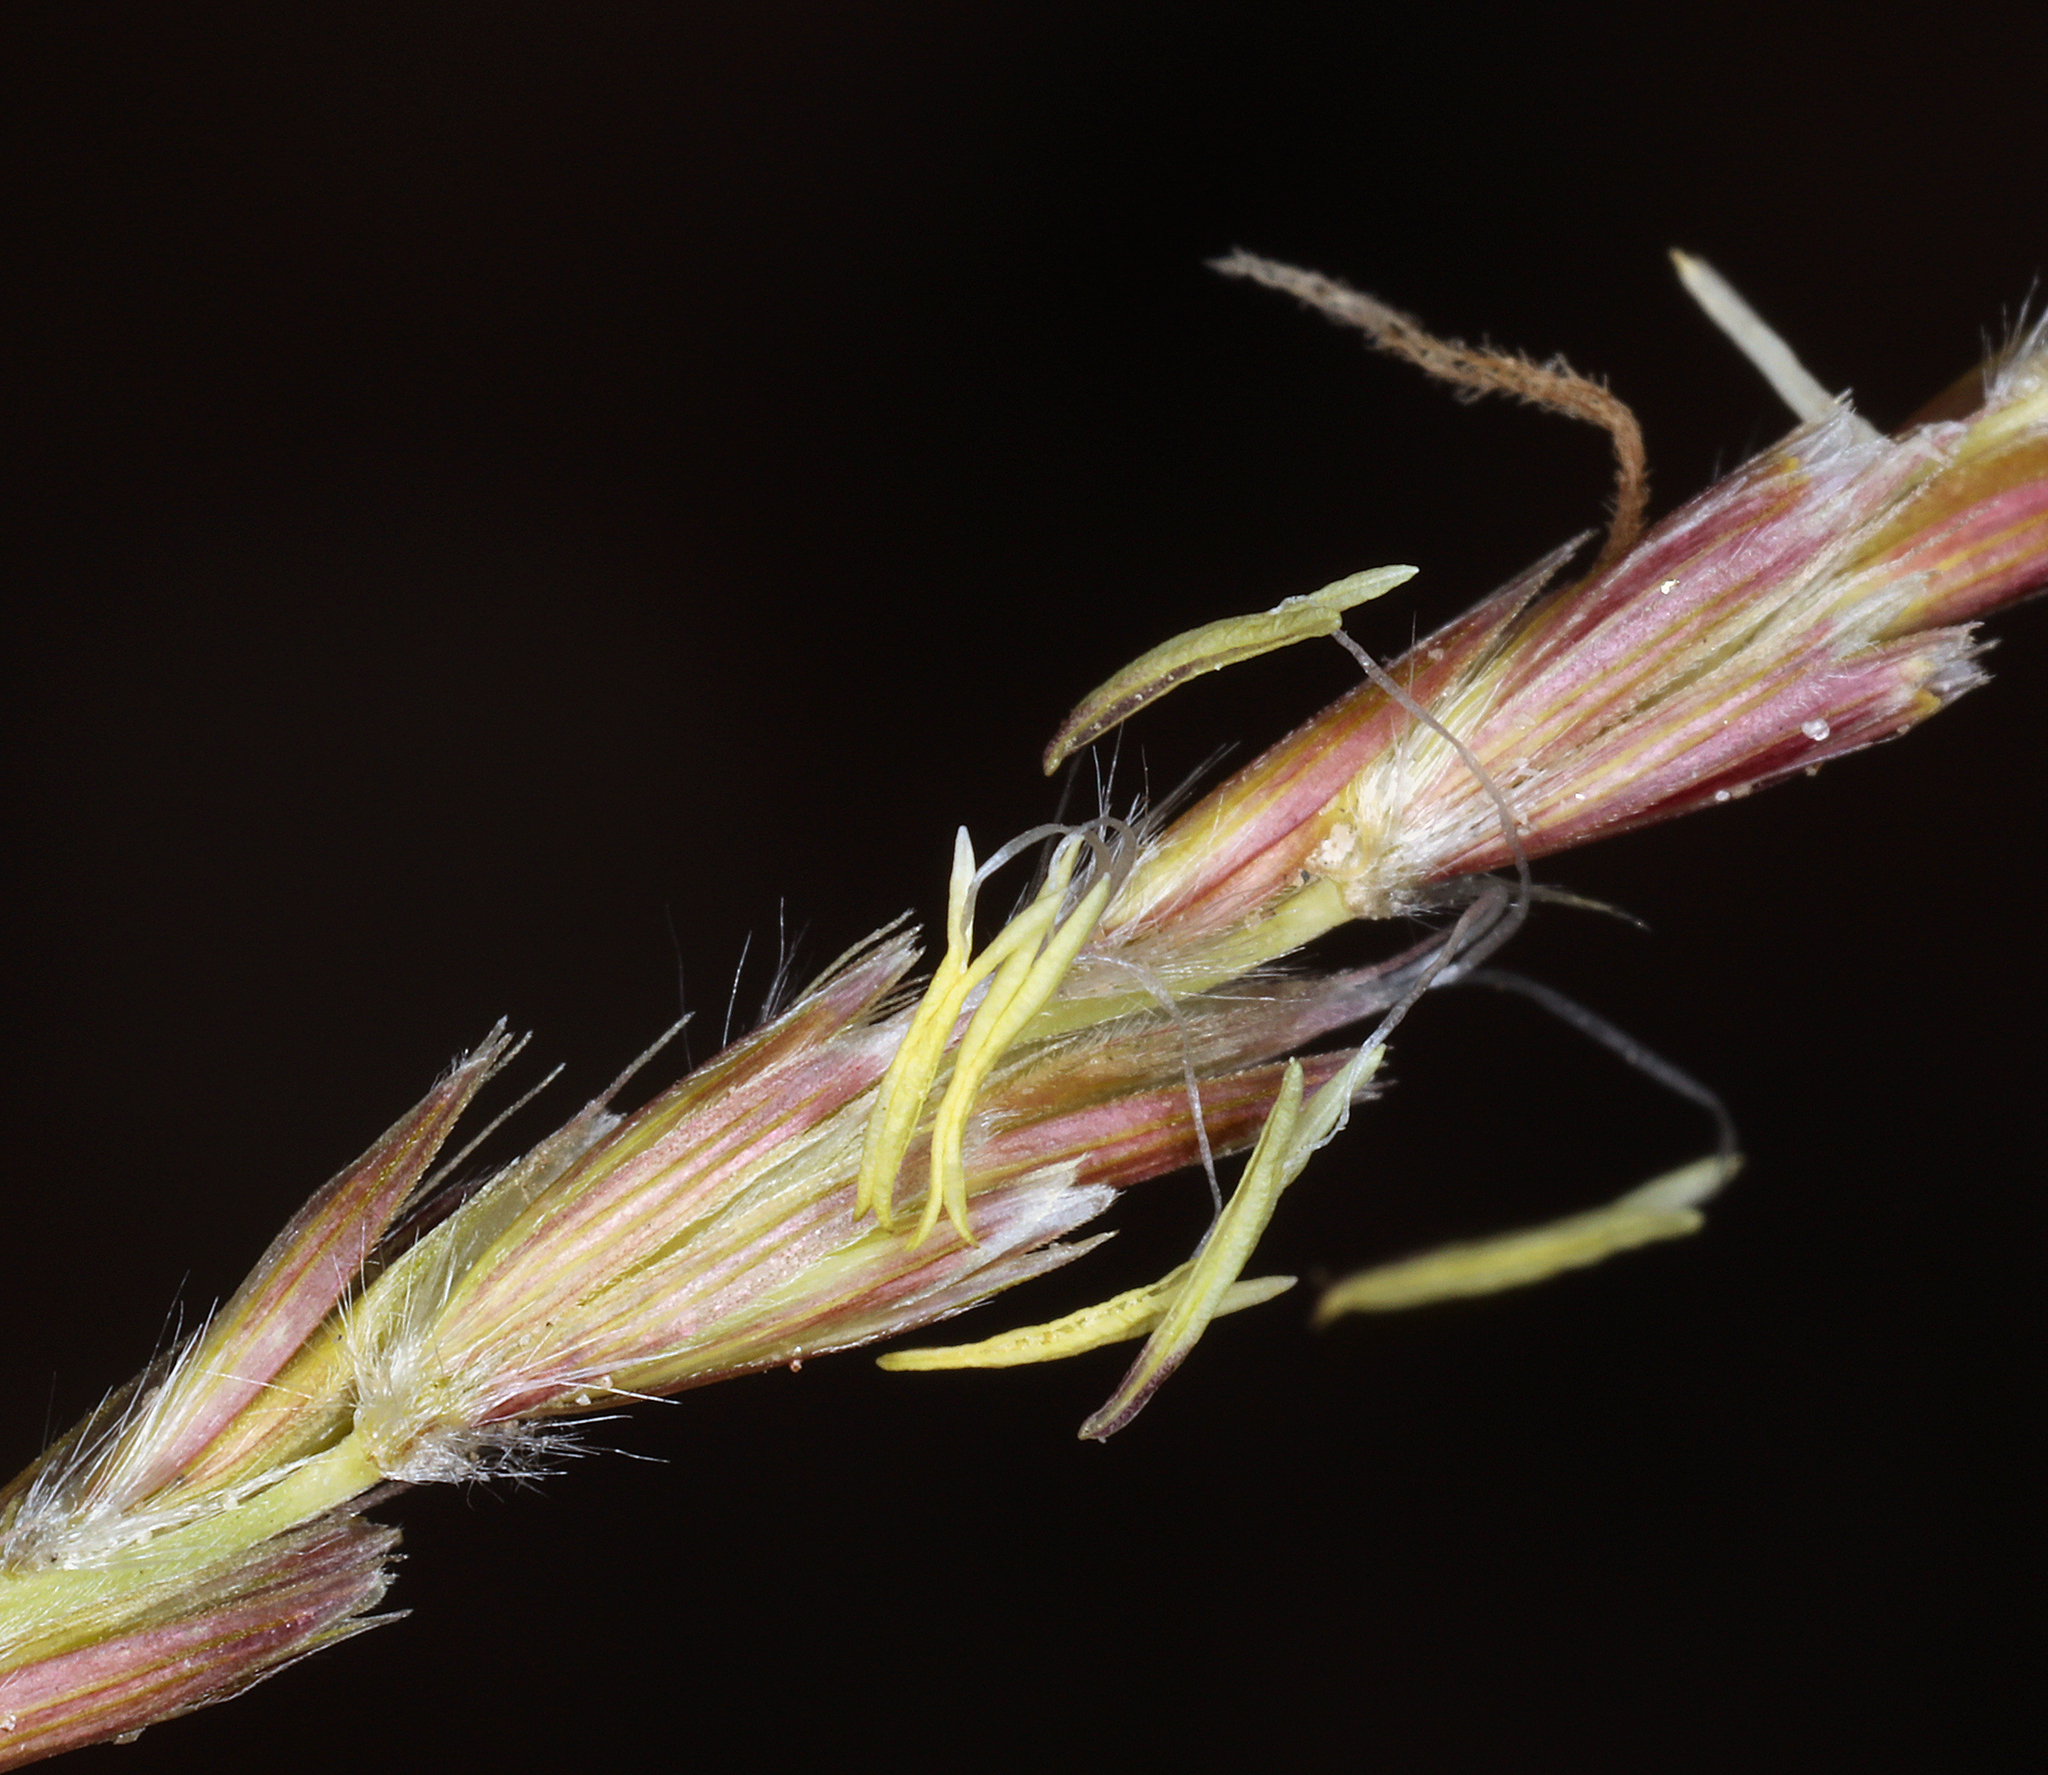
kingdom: Plantae
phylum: Tracheophyta
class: Liliopsida
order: Poales
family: Poaceae
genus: Hilaria
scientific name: Hilaria jamesii
